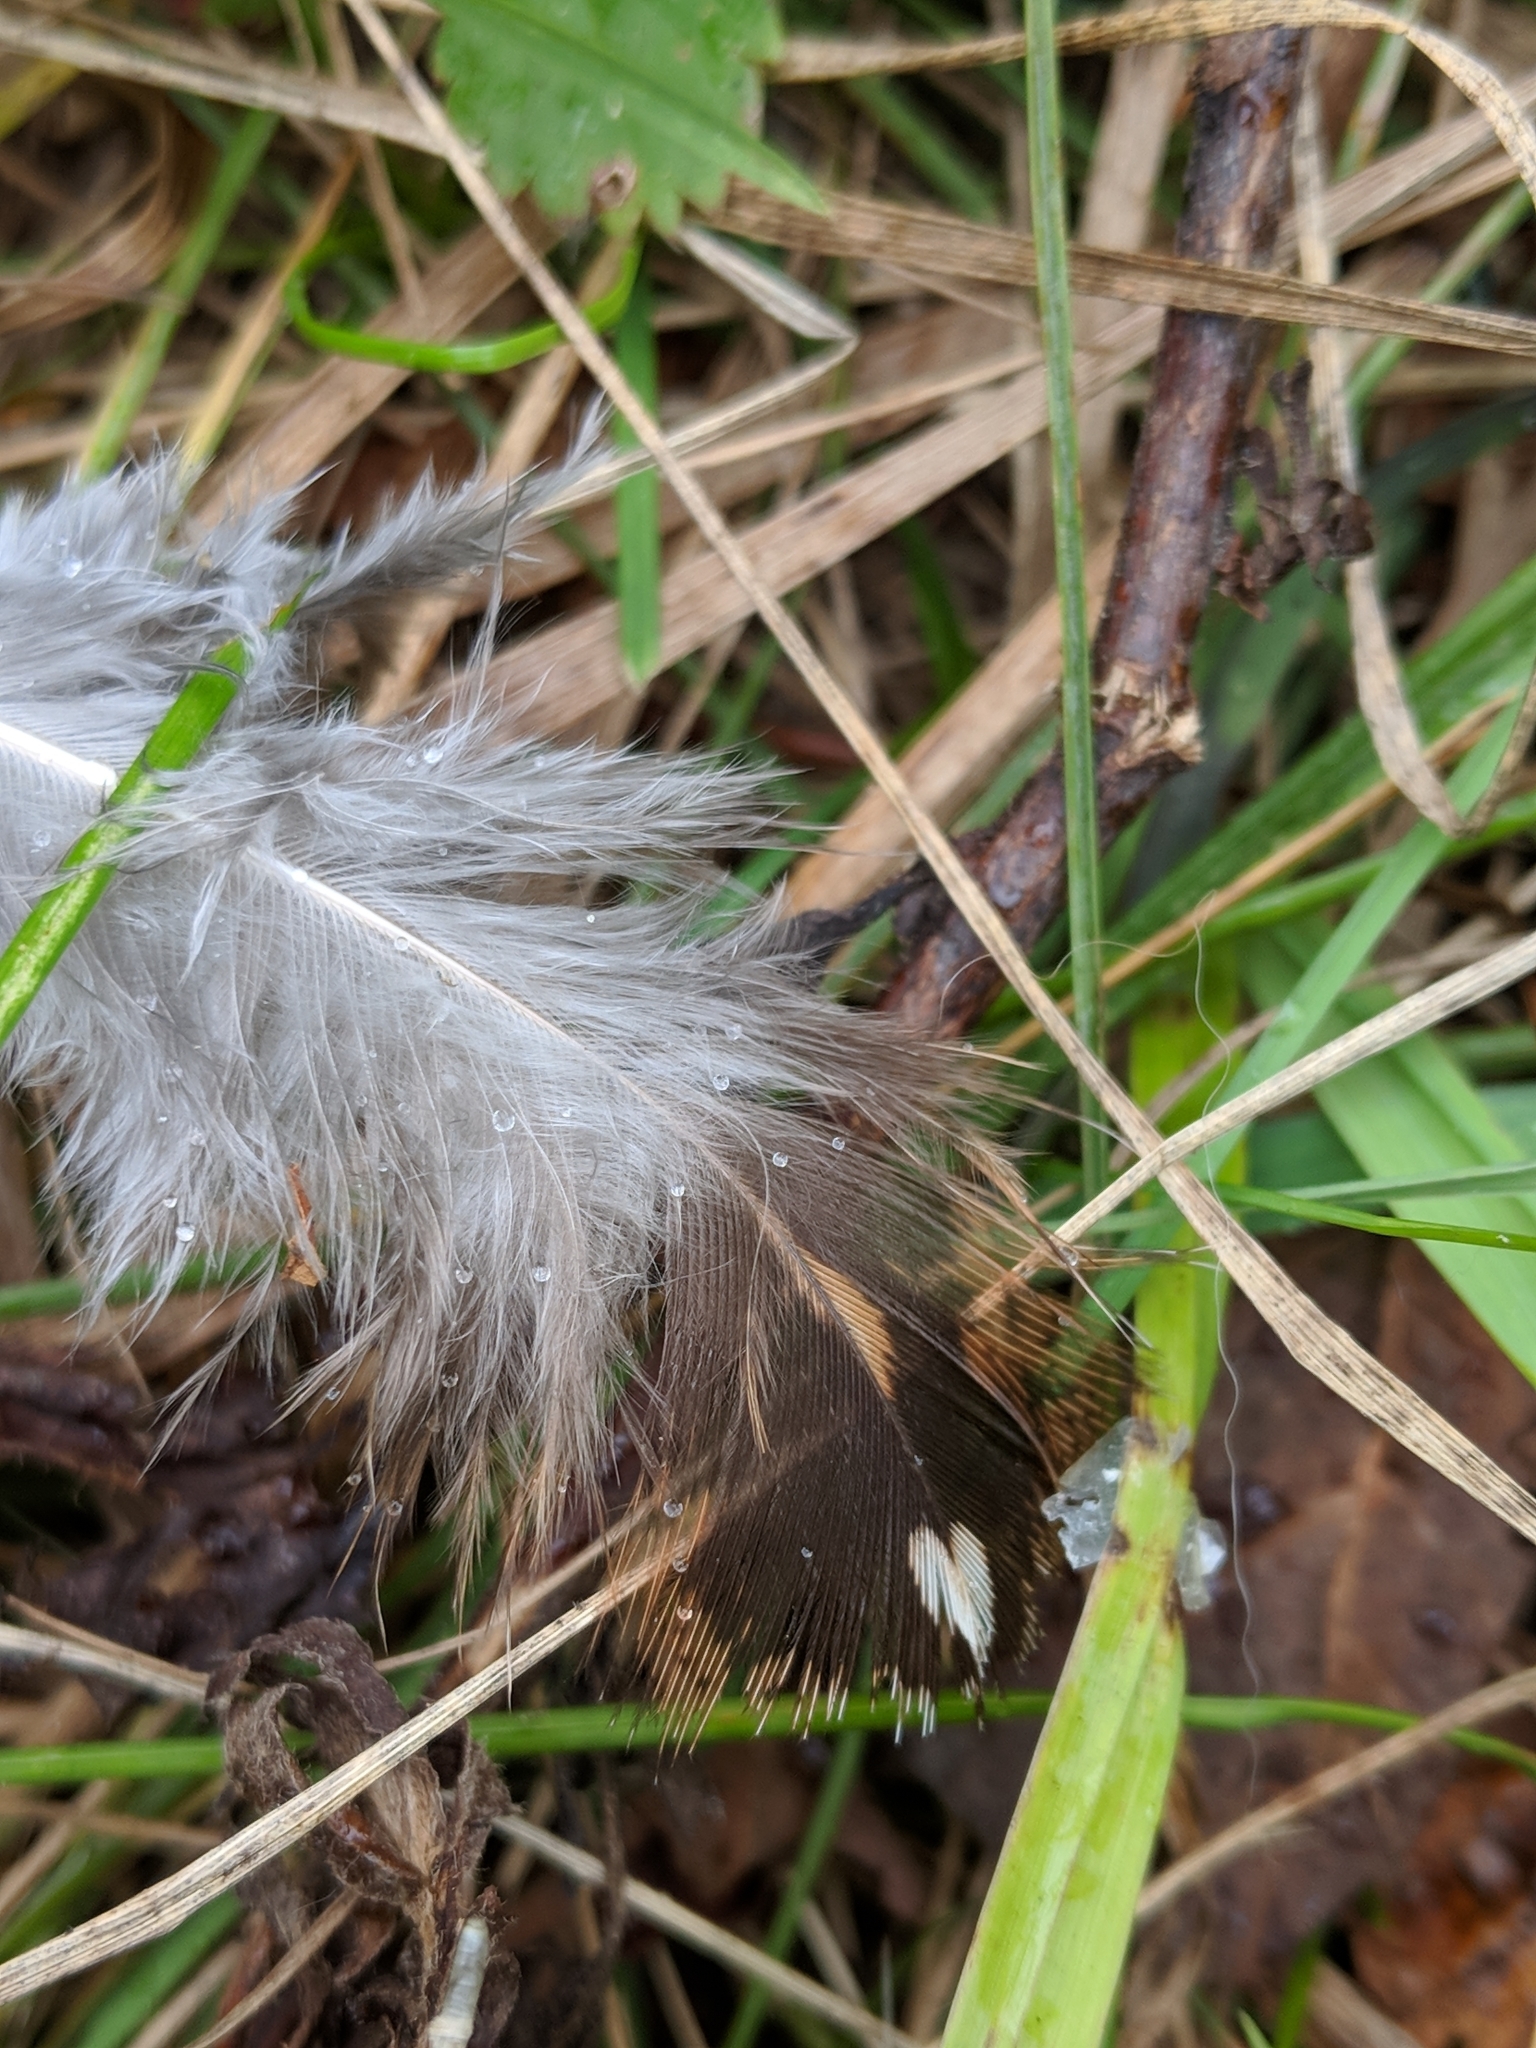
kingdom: Animalia
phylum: Chordata
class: Aves
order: Galliformes
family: Phasianidae
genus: Bonasa
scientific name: Bonasa umbellus
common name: Ruffed grouse
